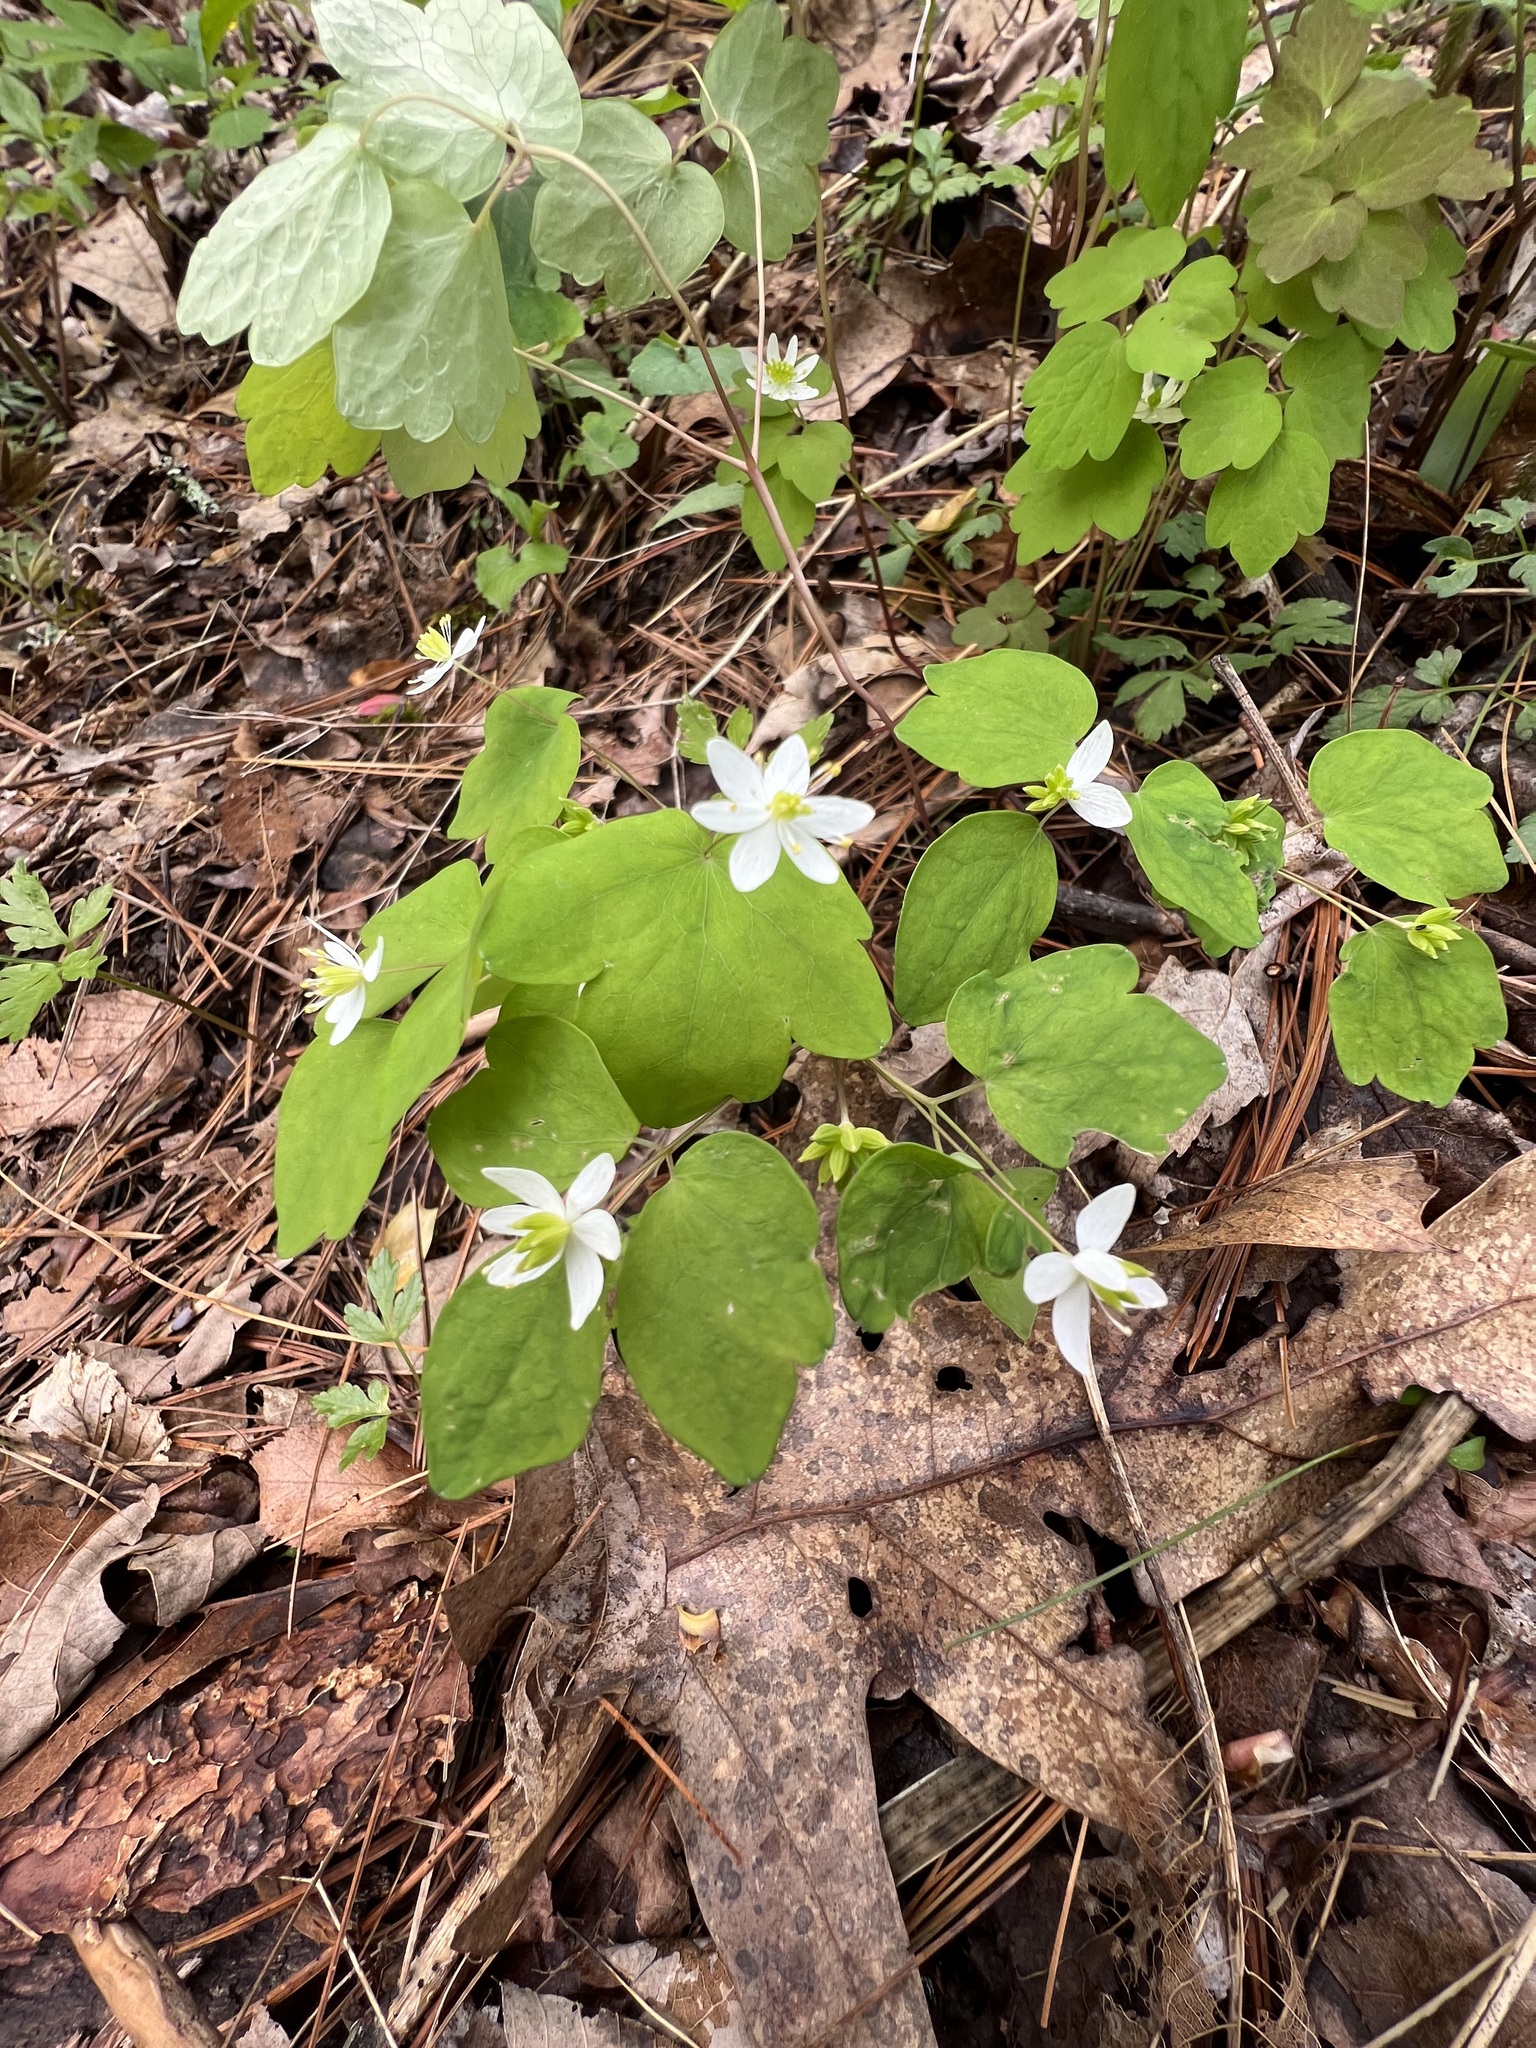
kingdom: Plantae
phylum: Tracheophyta
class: Magnoliopsida
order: Ranunculales
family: Ranunculaceae
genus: Thalictrum
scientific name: Thalictrum thalictroides
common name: Rue-anemone
